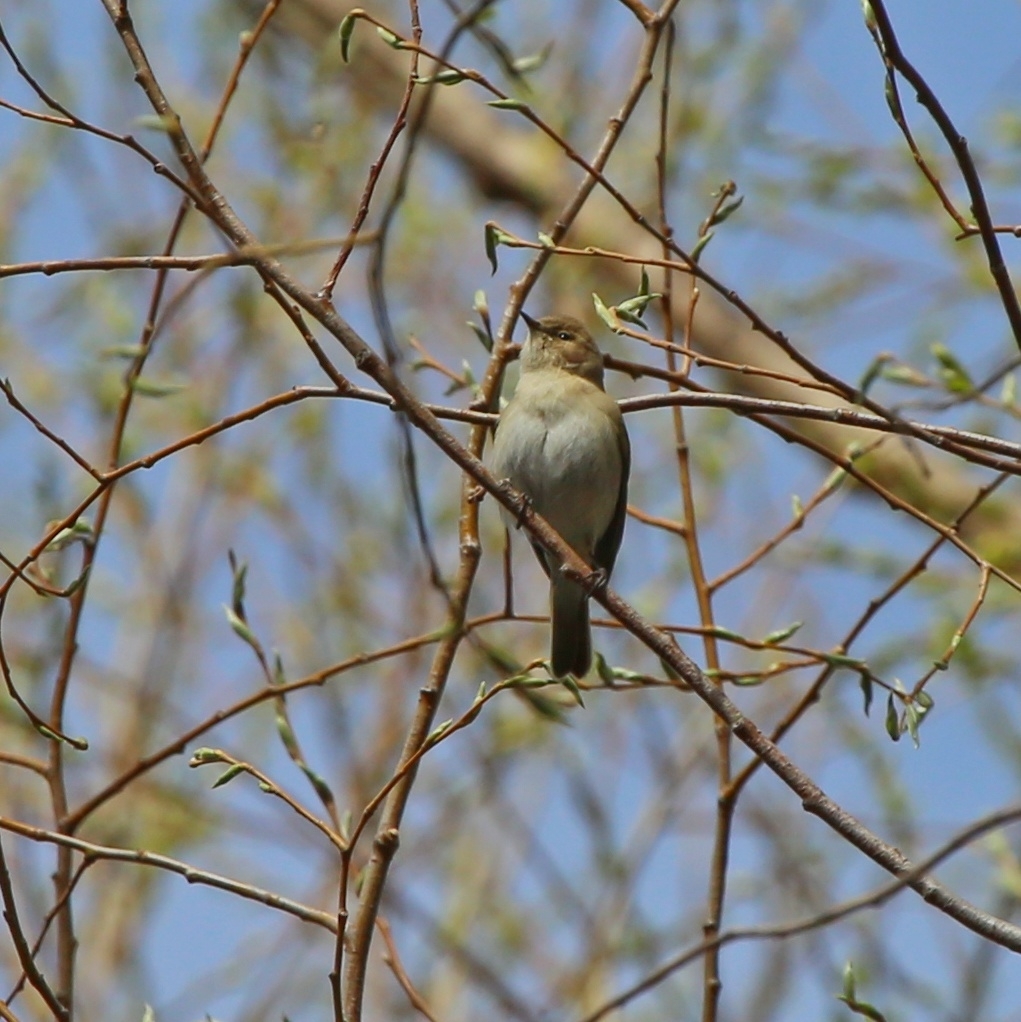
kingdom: Animalia
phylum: Chordata
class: Aves
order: Passeriformes
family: Phylloscopidae
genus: Phylloscopus
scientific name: Phylloscopus collybita
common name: Common chiffchaff
